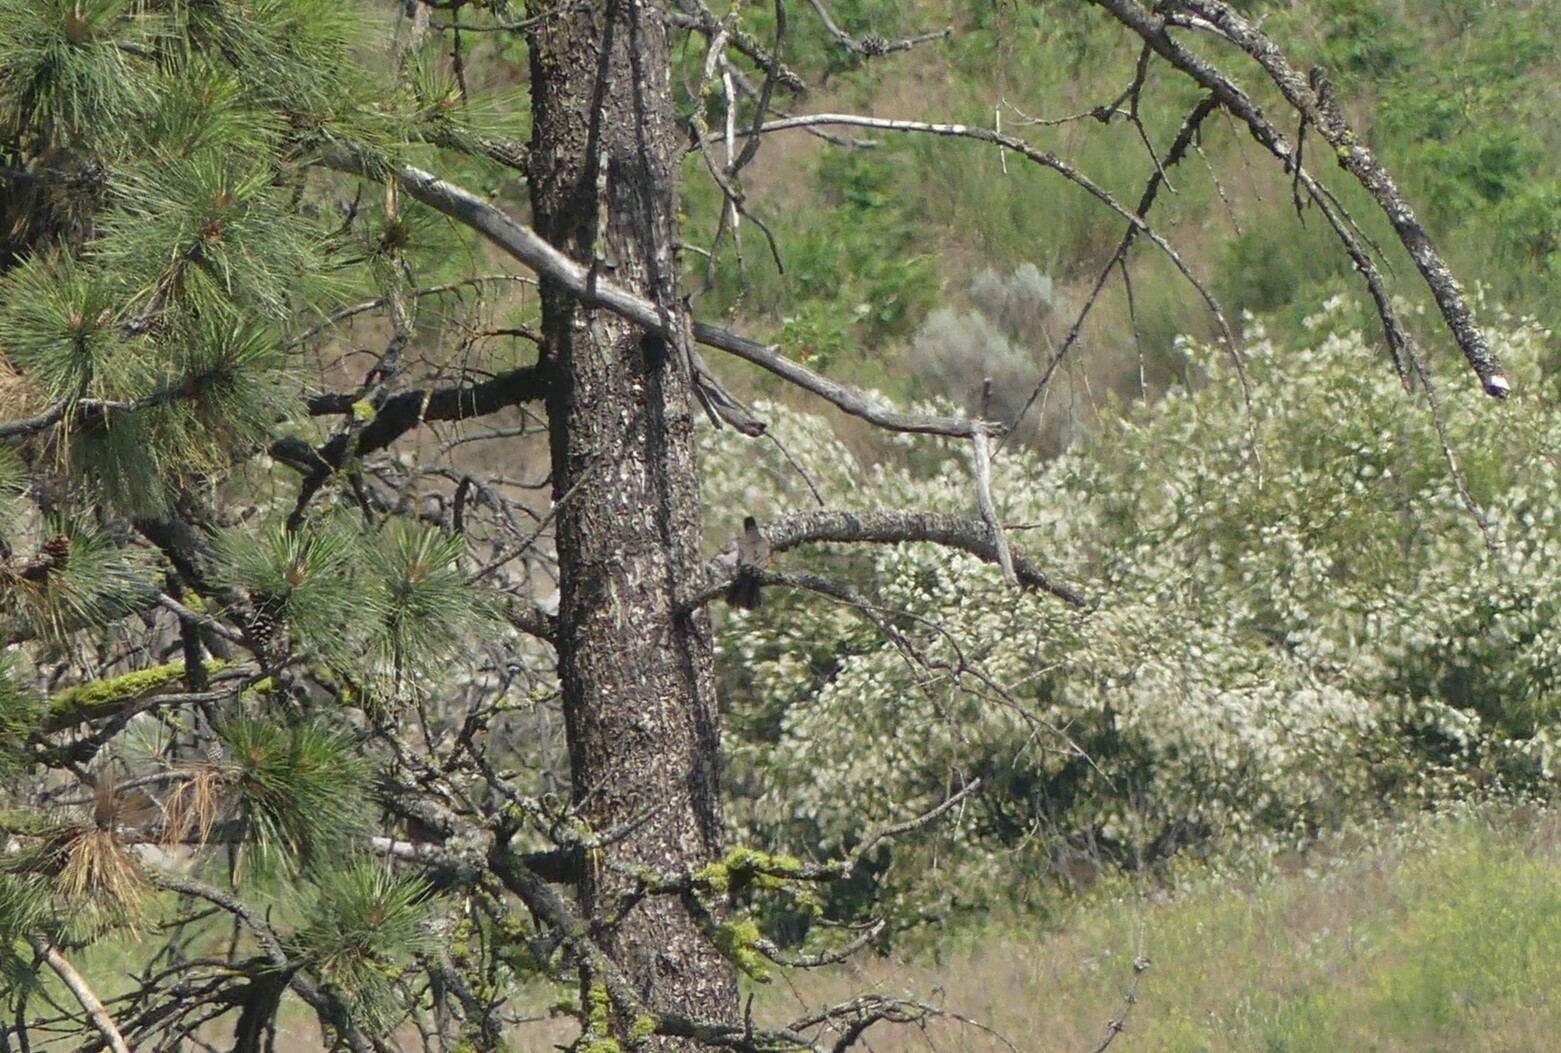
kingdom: Animalia
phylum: Chordata
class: Aves
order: Passeriformes
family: Turdidae
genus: Turdus
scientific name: Turdus migratorius
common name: American robin
